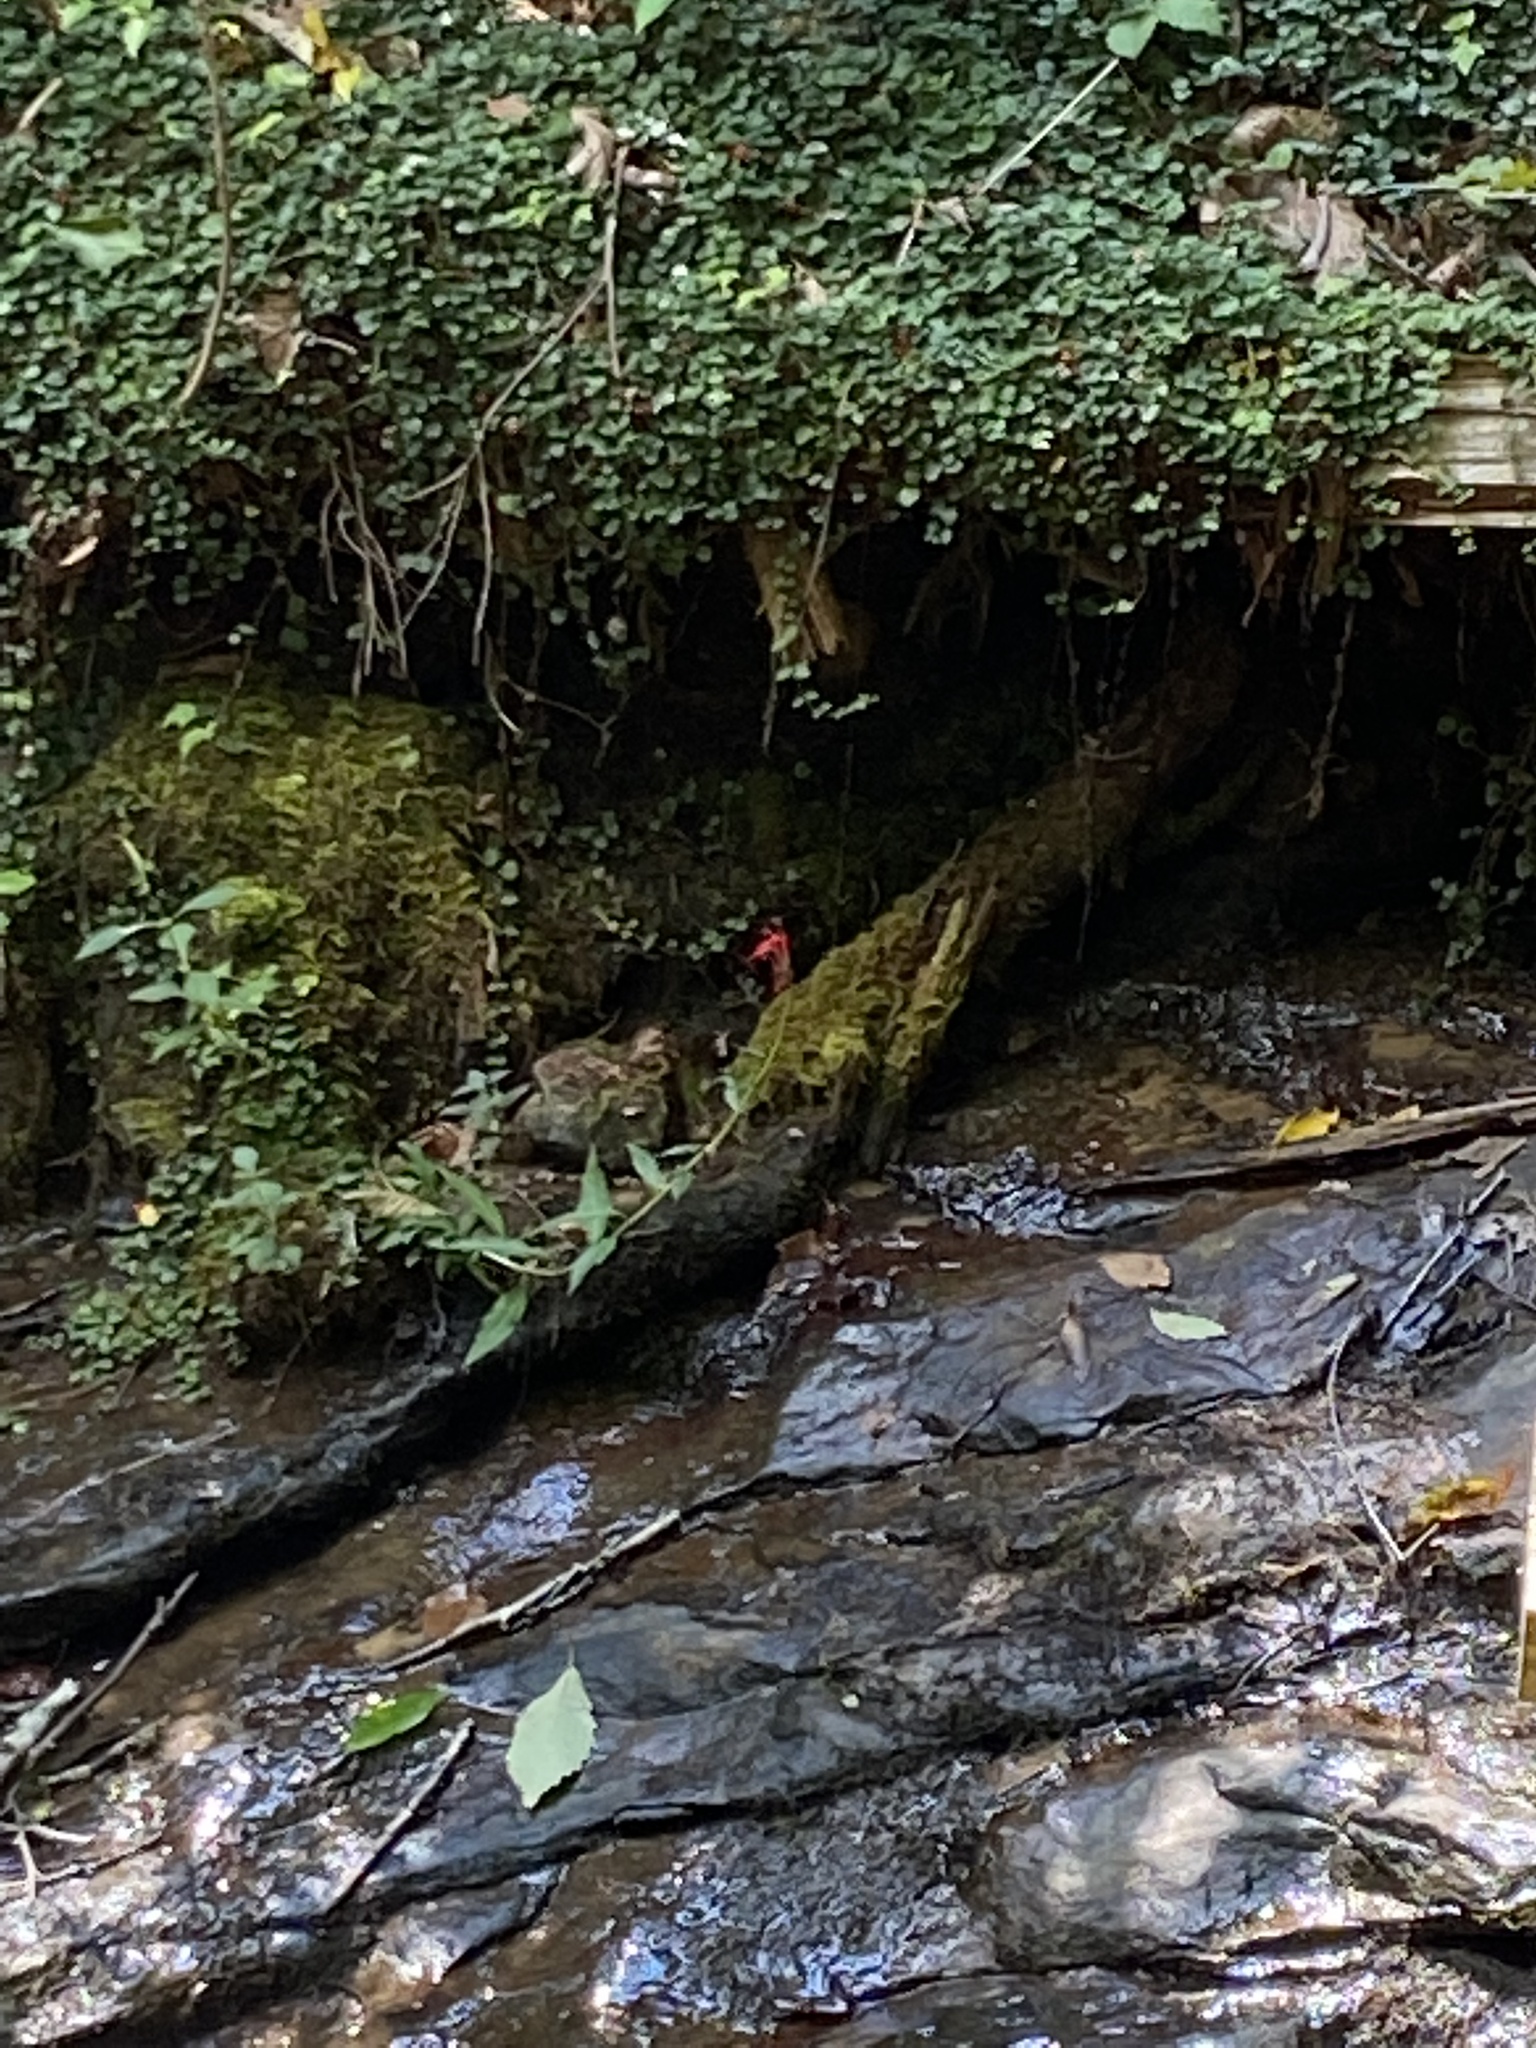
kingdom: Plantae
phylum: Tracheophyta
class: Magnoliopsida
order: Asterales
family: Campanulaceae
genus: Lobelia
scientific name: Lobelia cardinalis
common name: Cardinal flower
